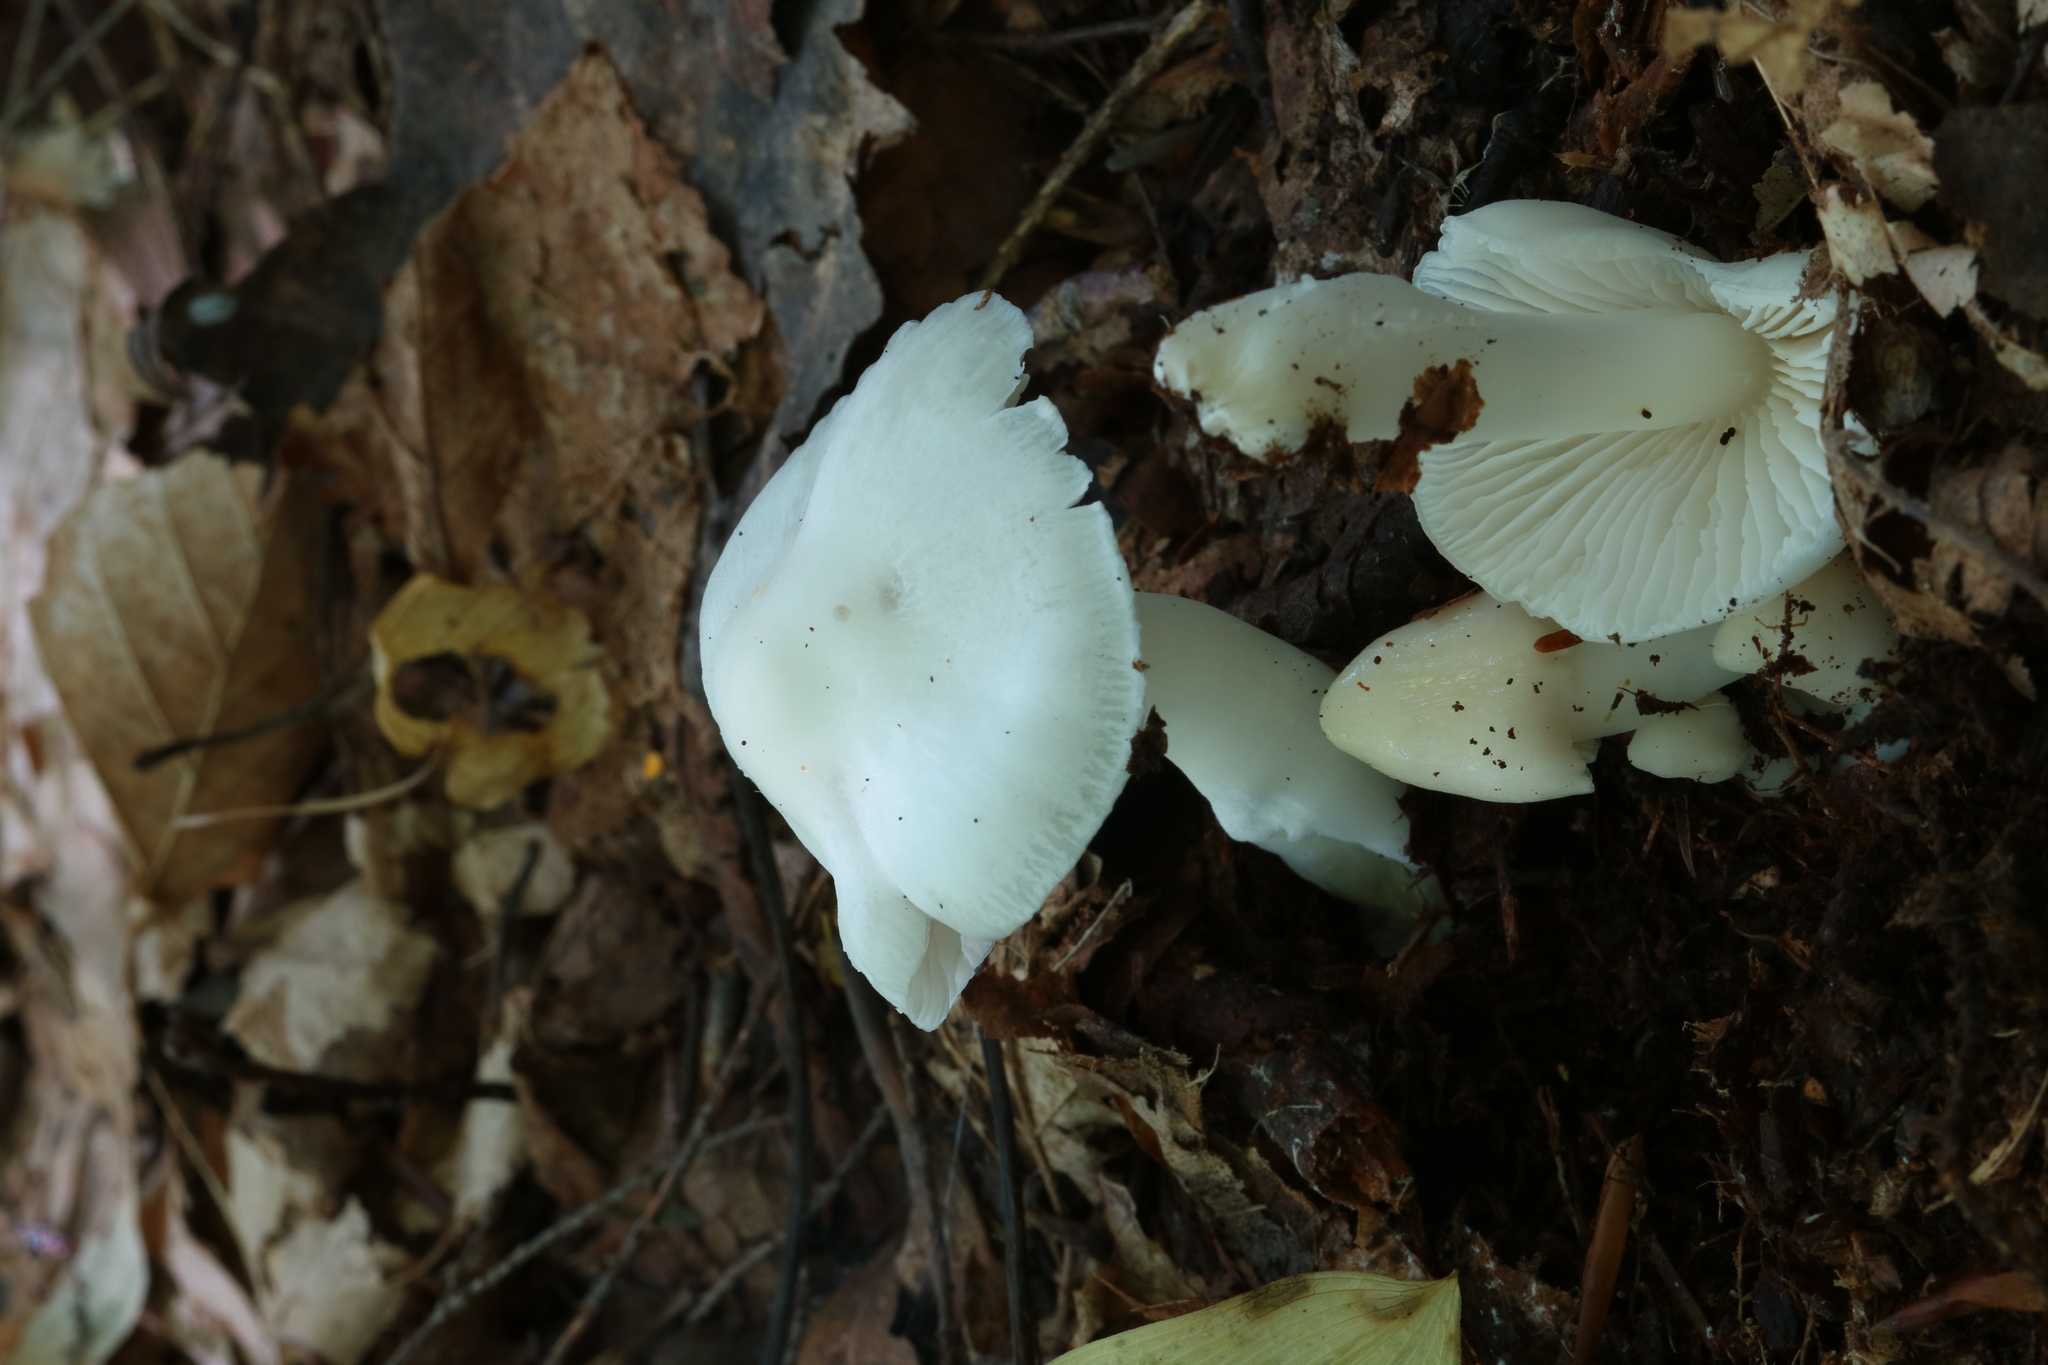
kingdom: Fungi
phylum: Basidiomycota
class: Agaricomycetes
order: Agaricales
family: Hygrophoraceae
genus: Humidicutis
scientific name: Humidicutis pura
